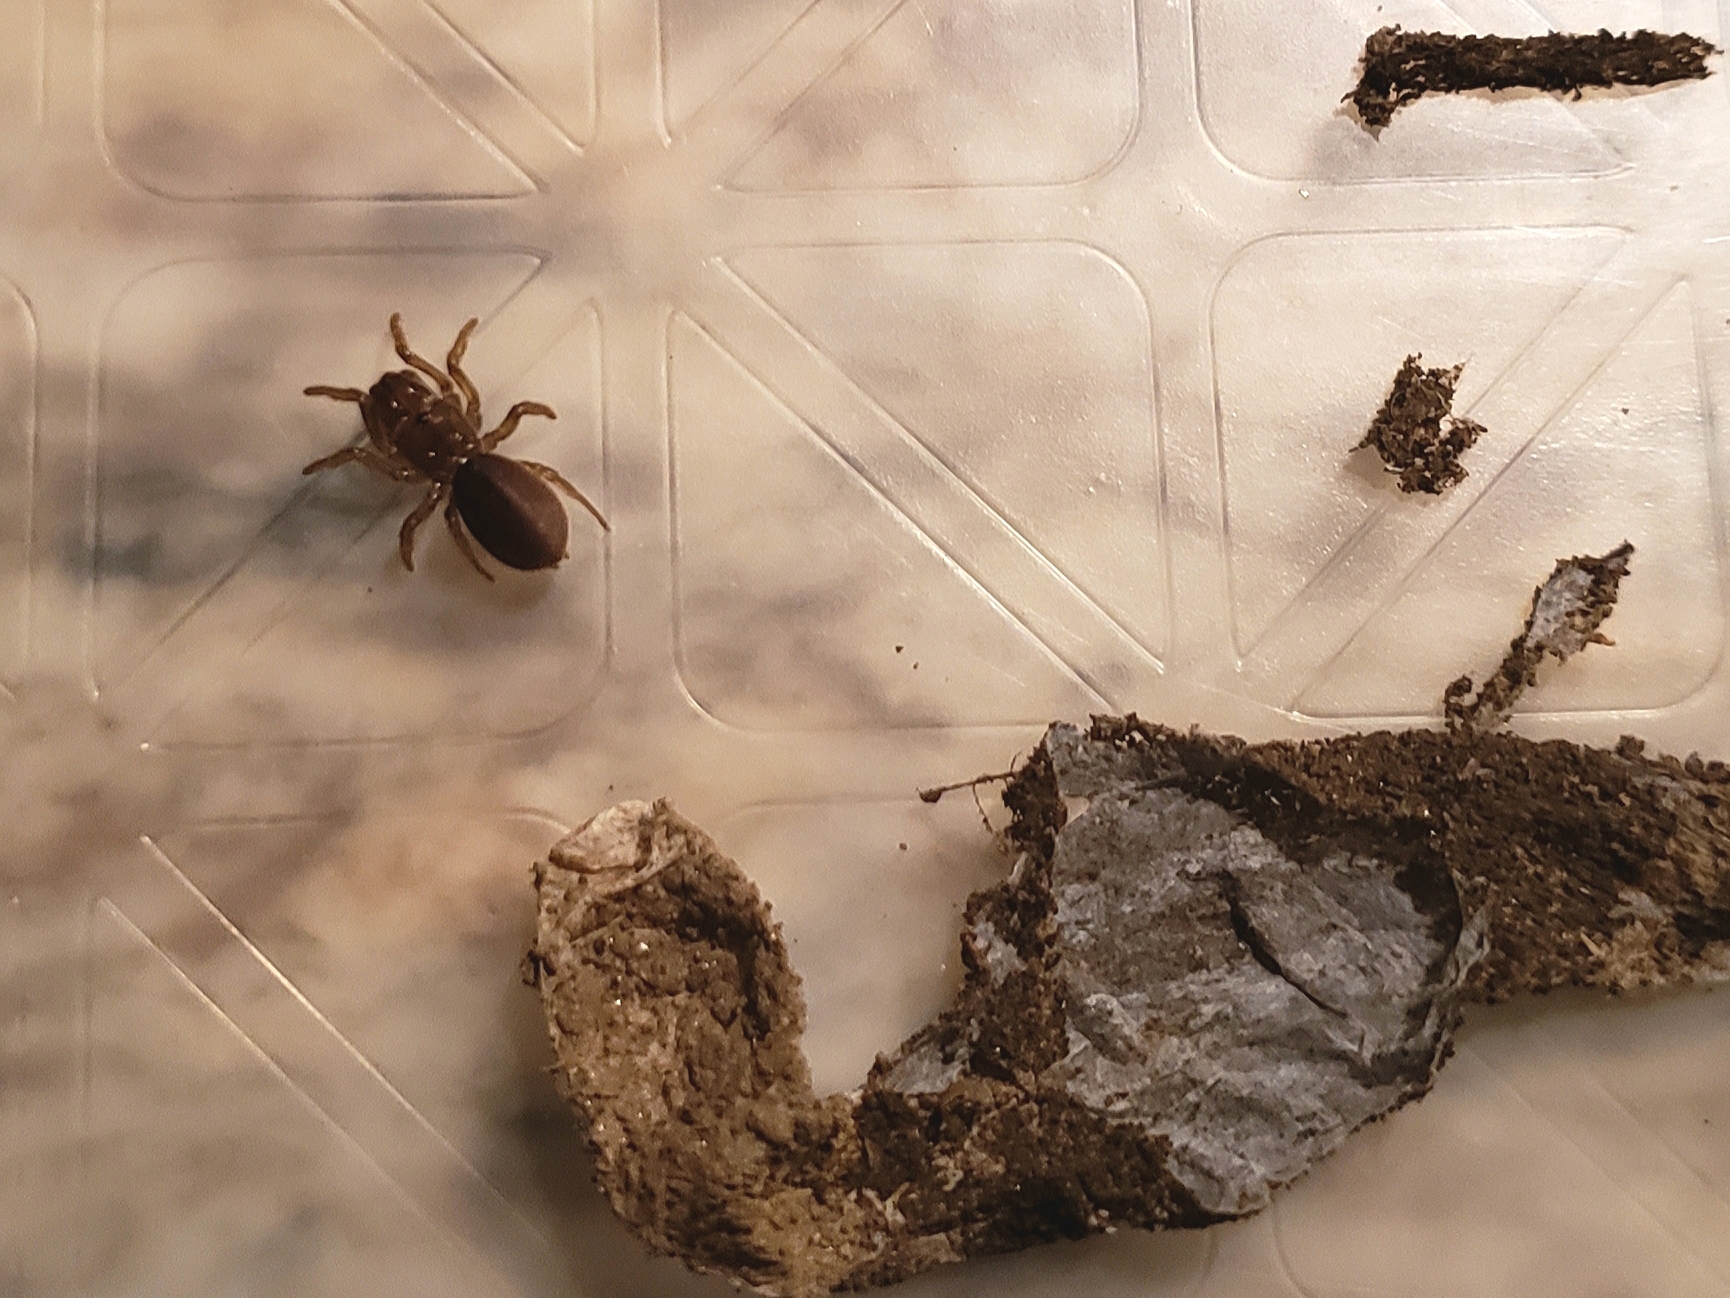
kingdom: Animalia
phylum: Arthropoda
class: Arachnida
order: Araneae
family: Atypidae
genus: Atypus
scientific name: Atypus karschi
